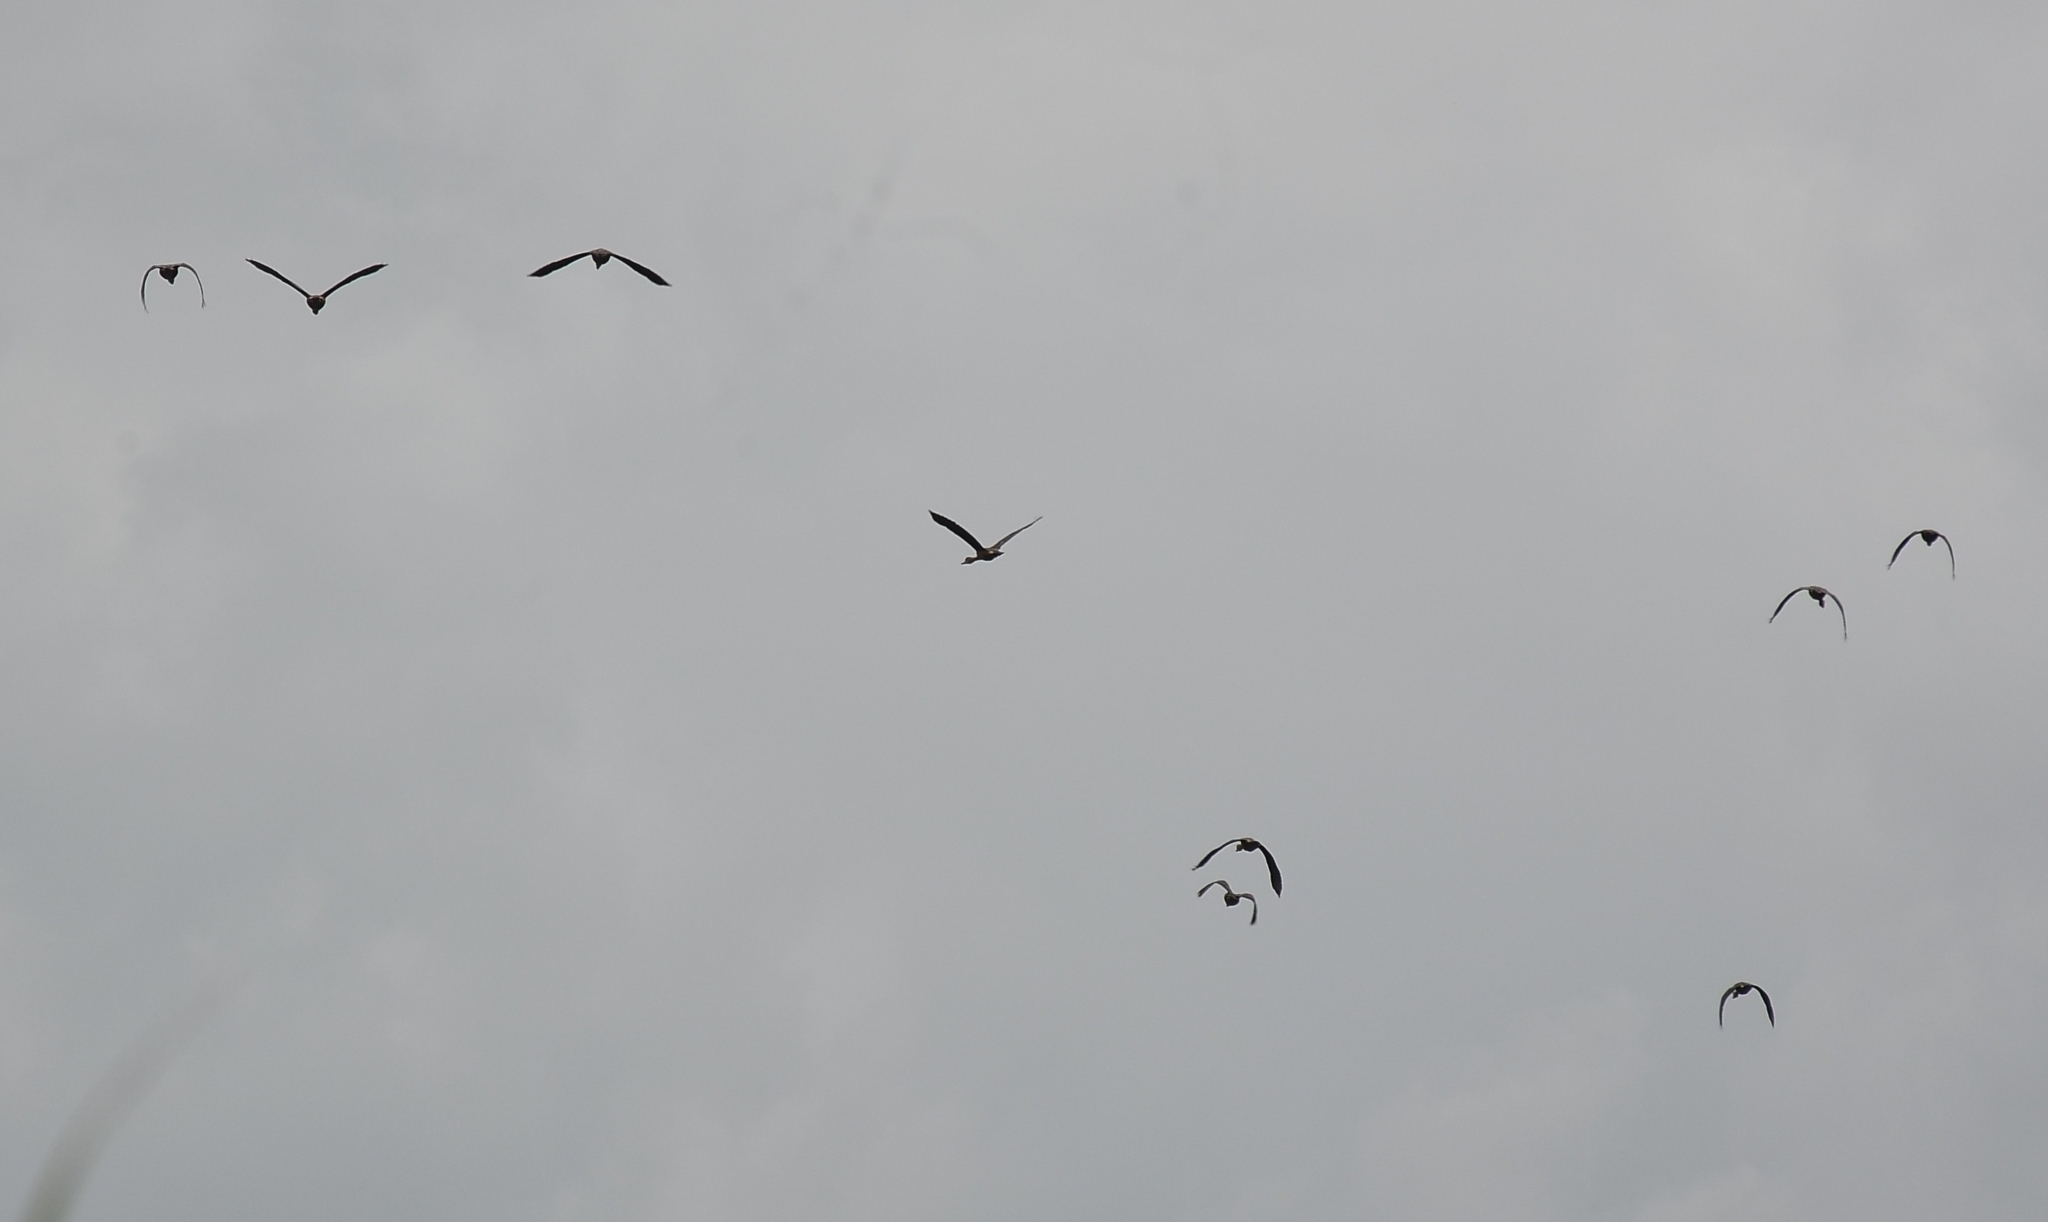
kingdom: Animalia
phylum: Chordata
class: Aves
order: Anseriformes
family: Anatidae
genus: Dendrocygna
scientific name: Dendrocygna javanica
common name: Lesser whistling-duck
